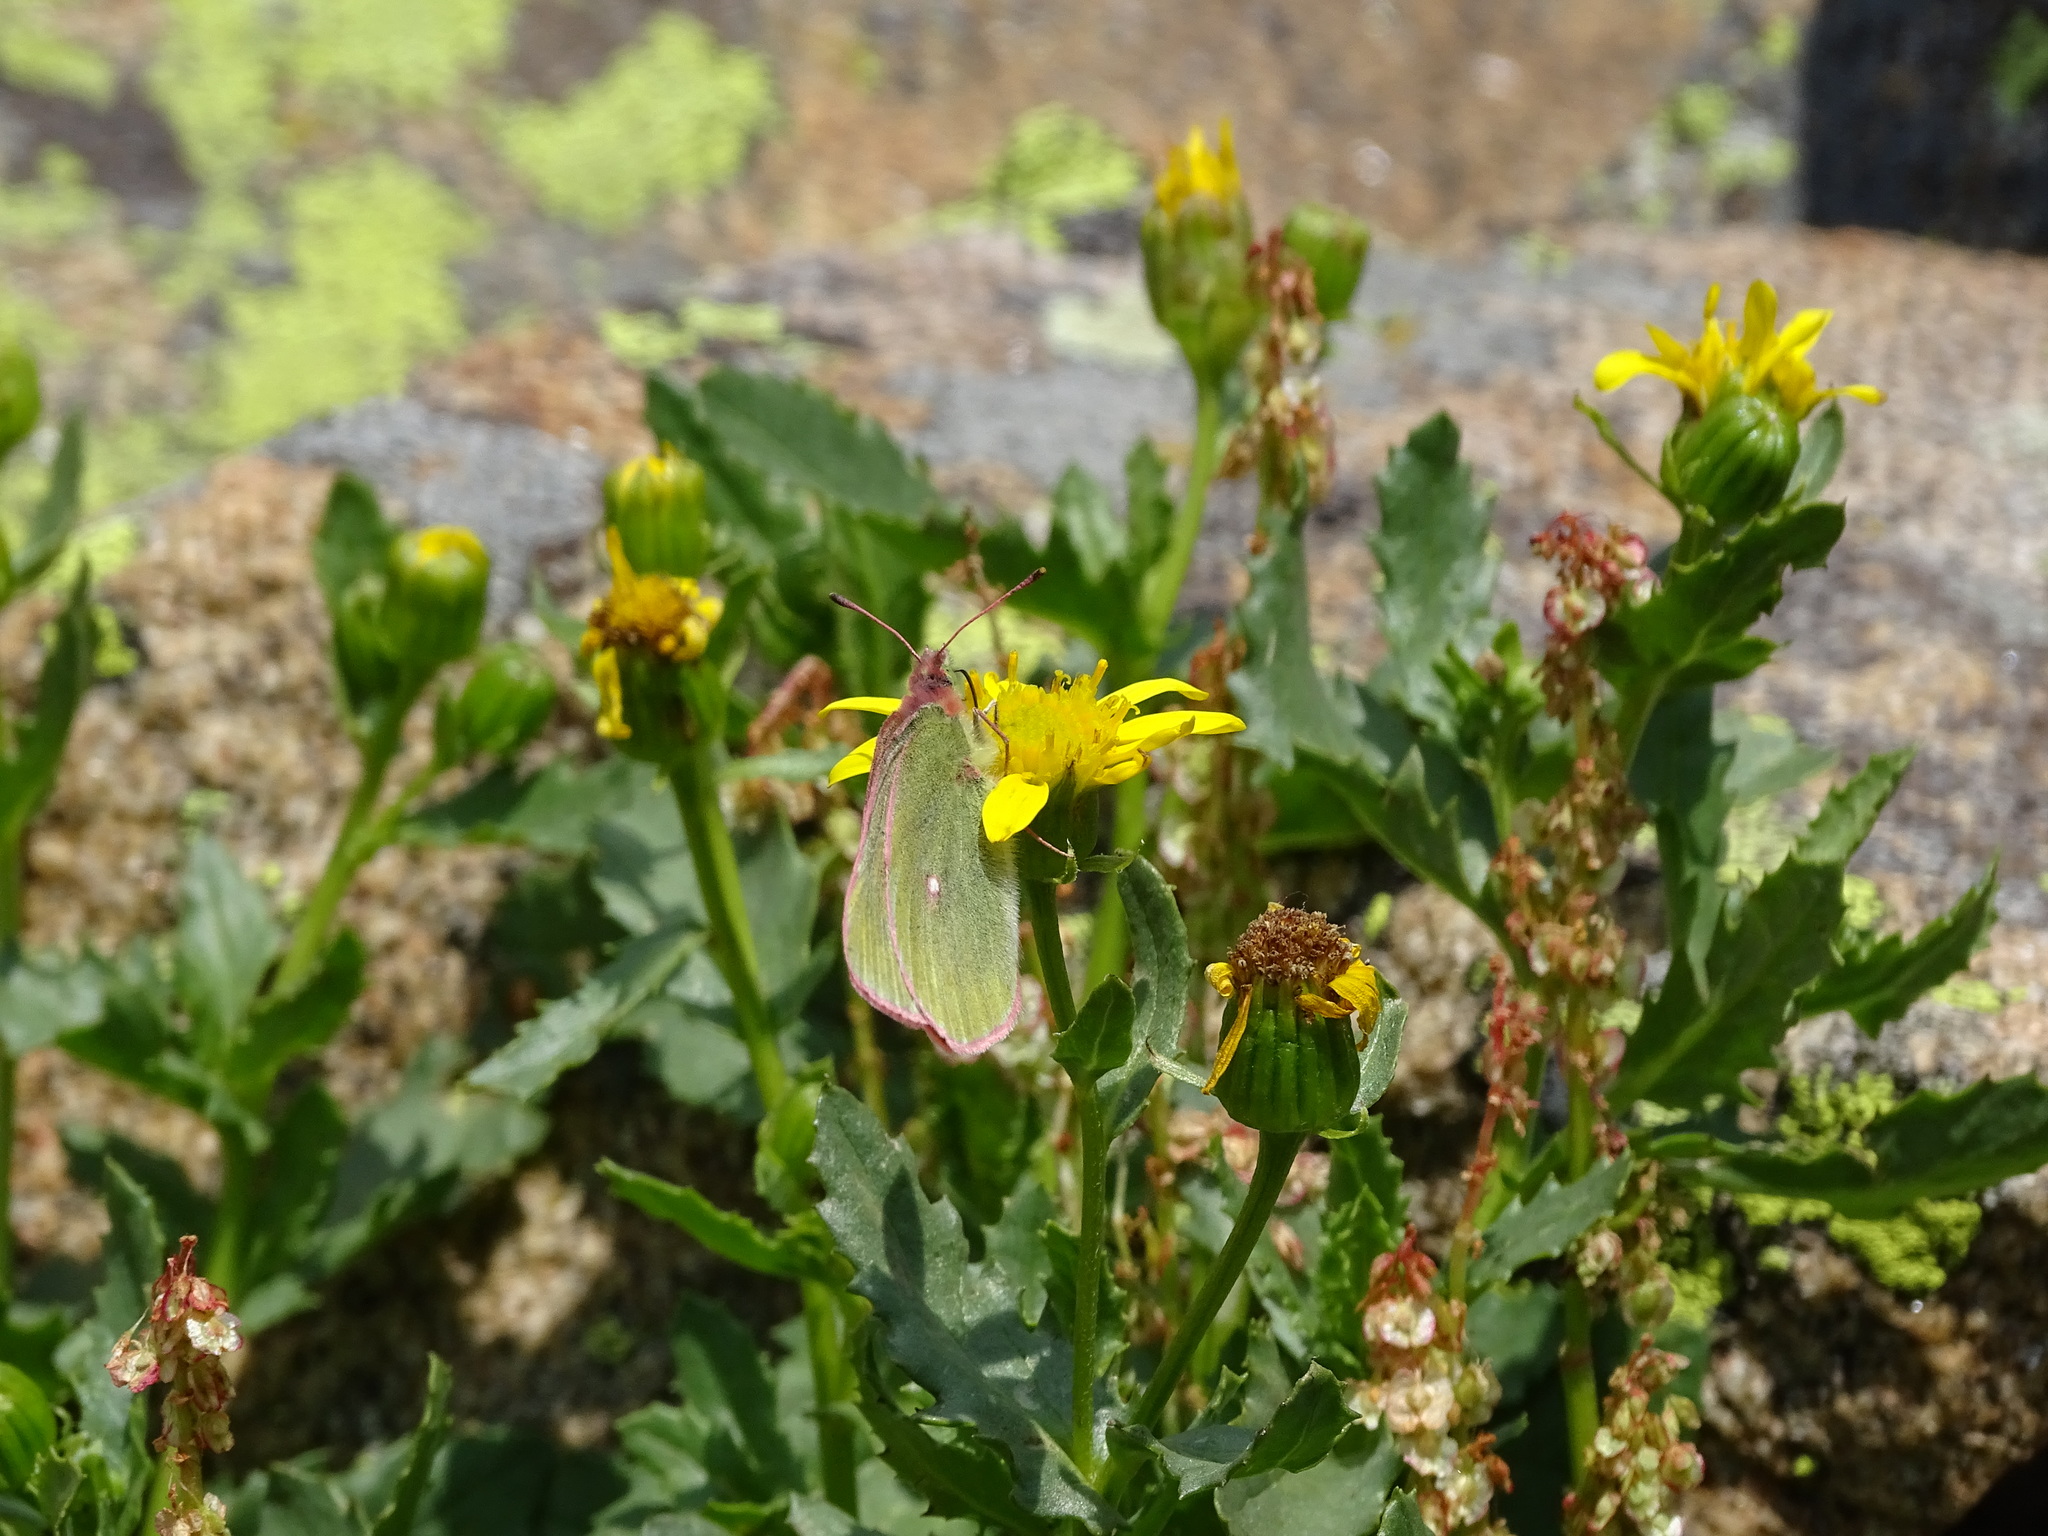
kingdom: Animalia
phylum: Arthropoda
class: Insecta
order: Lepidoptera
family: Pieridae
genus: Colias
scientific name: Colias meadii
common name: Mead's sulphur
